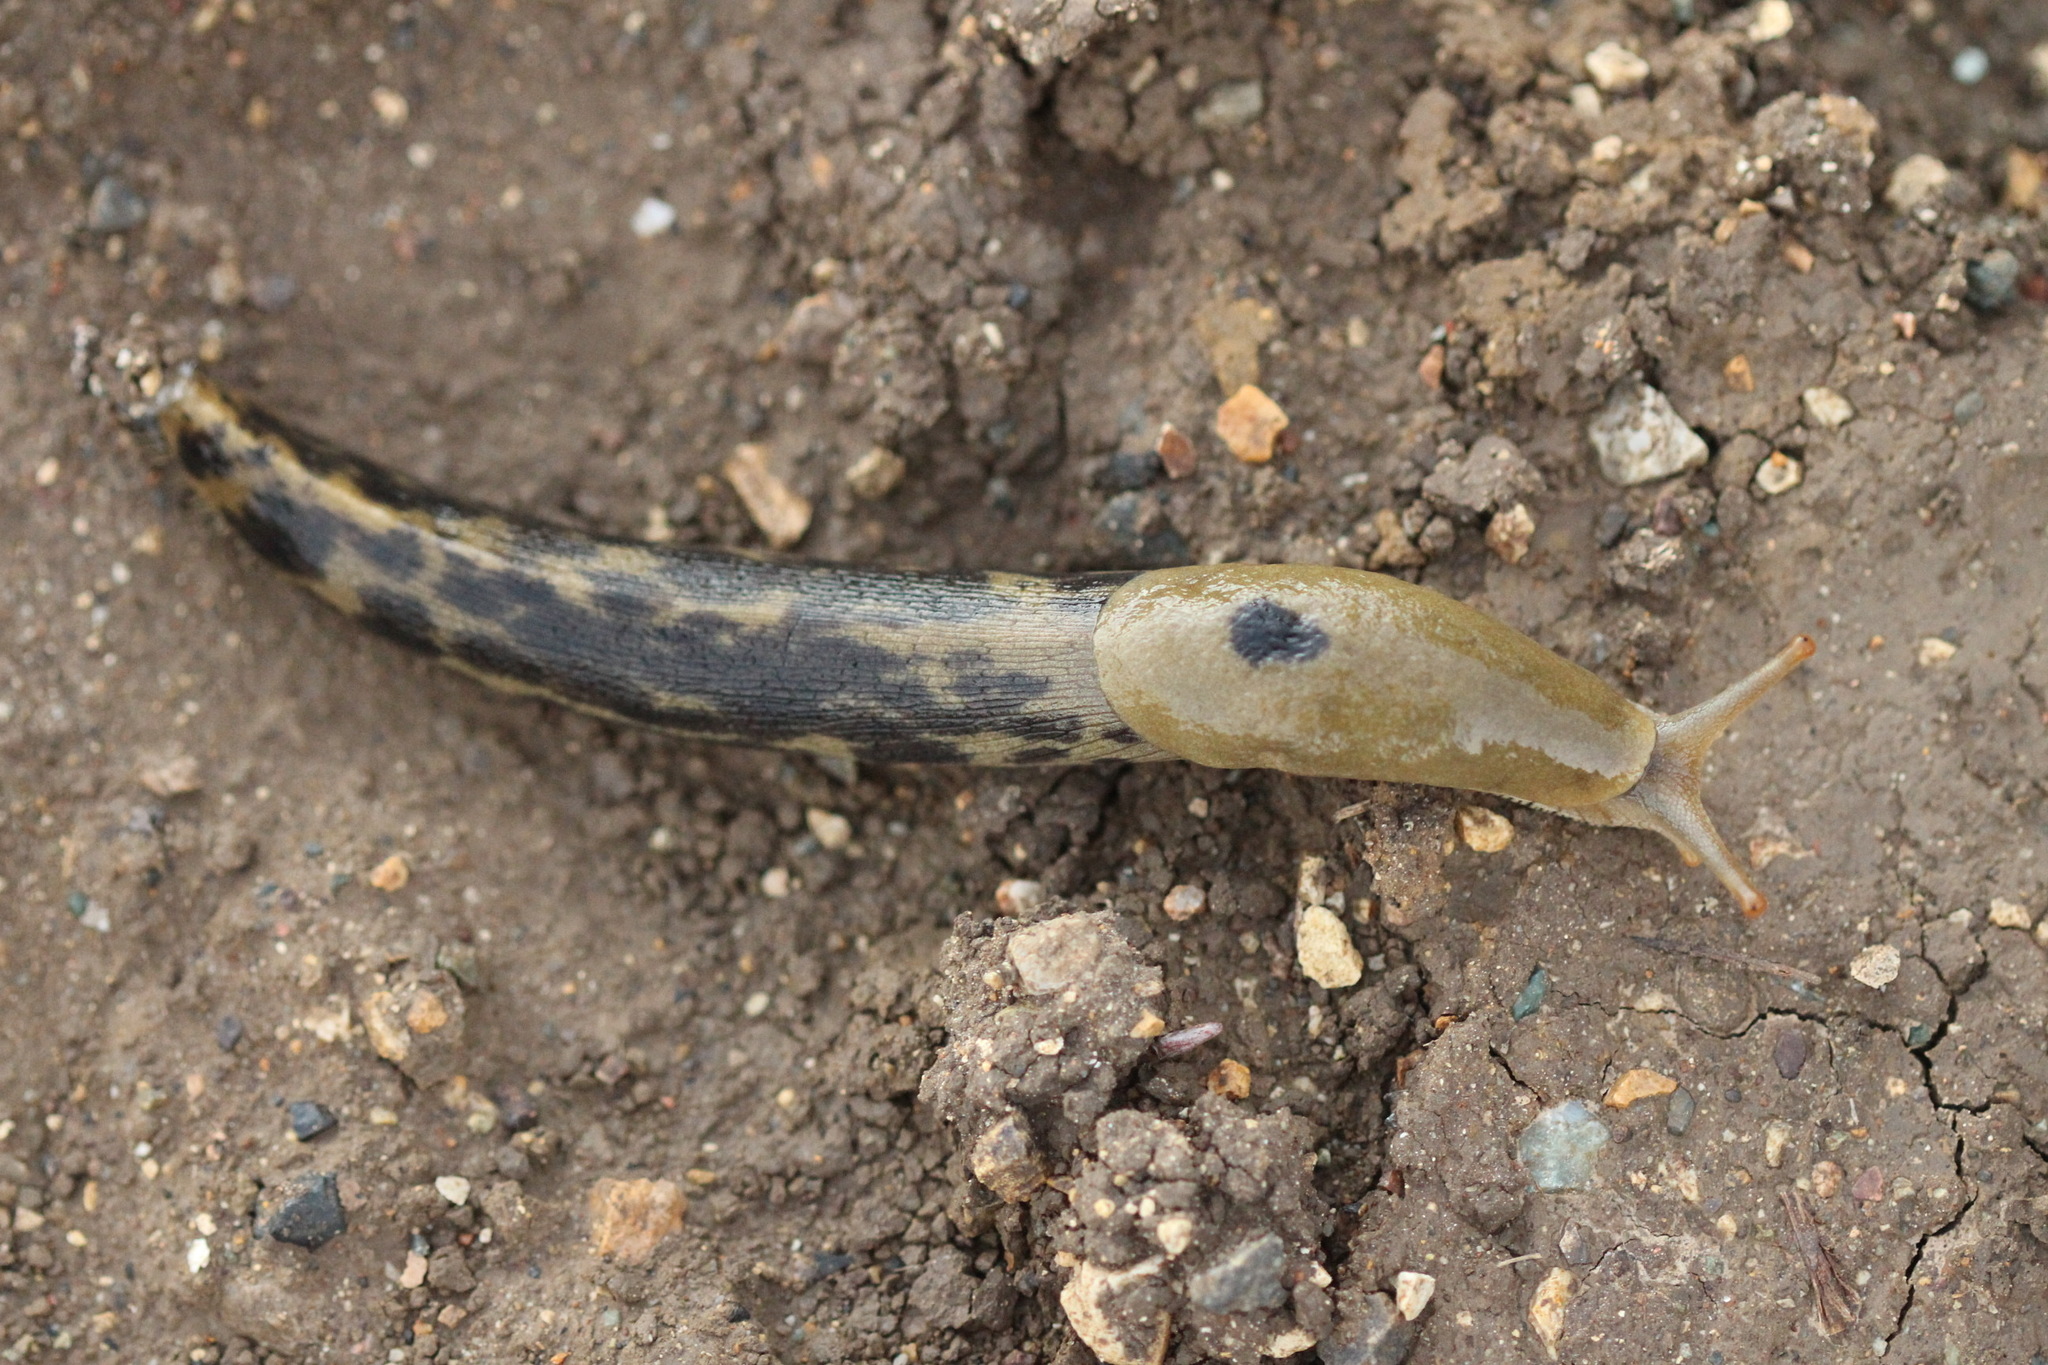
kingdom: Animalia
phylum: Mollusca
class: Gastropoda
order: Stylommatophora
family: Ariolimacidae
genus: Ariolimax
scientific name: Ariolimax buttoni
